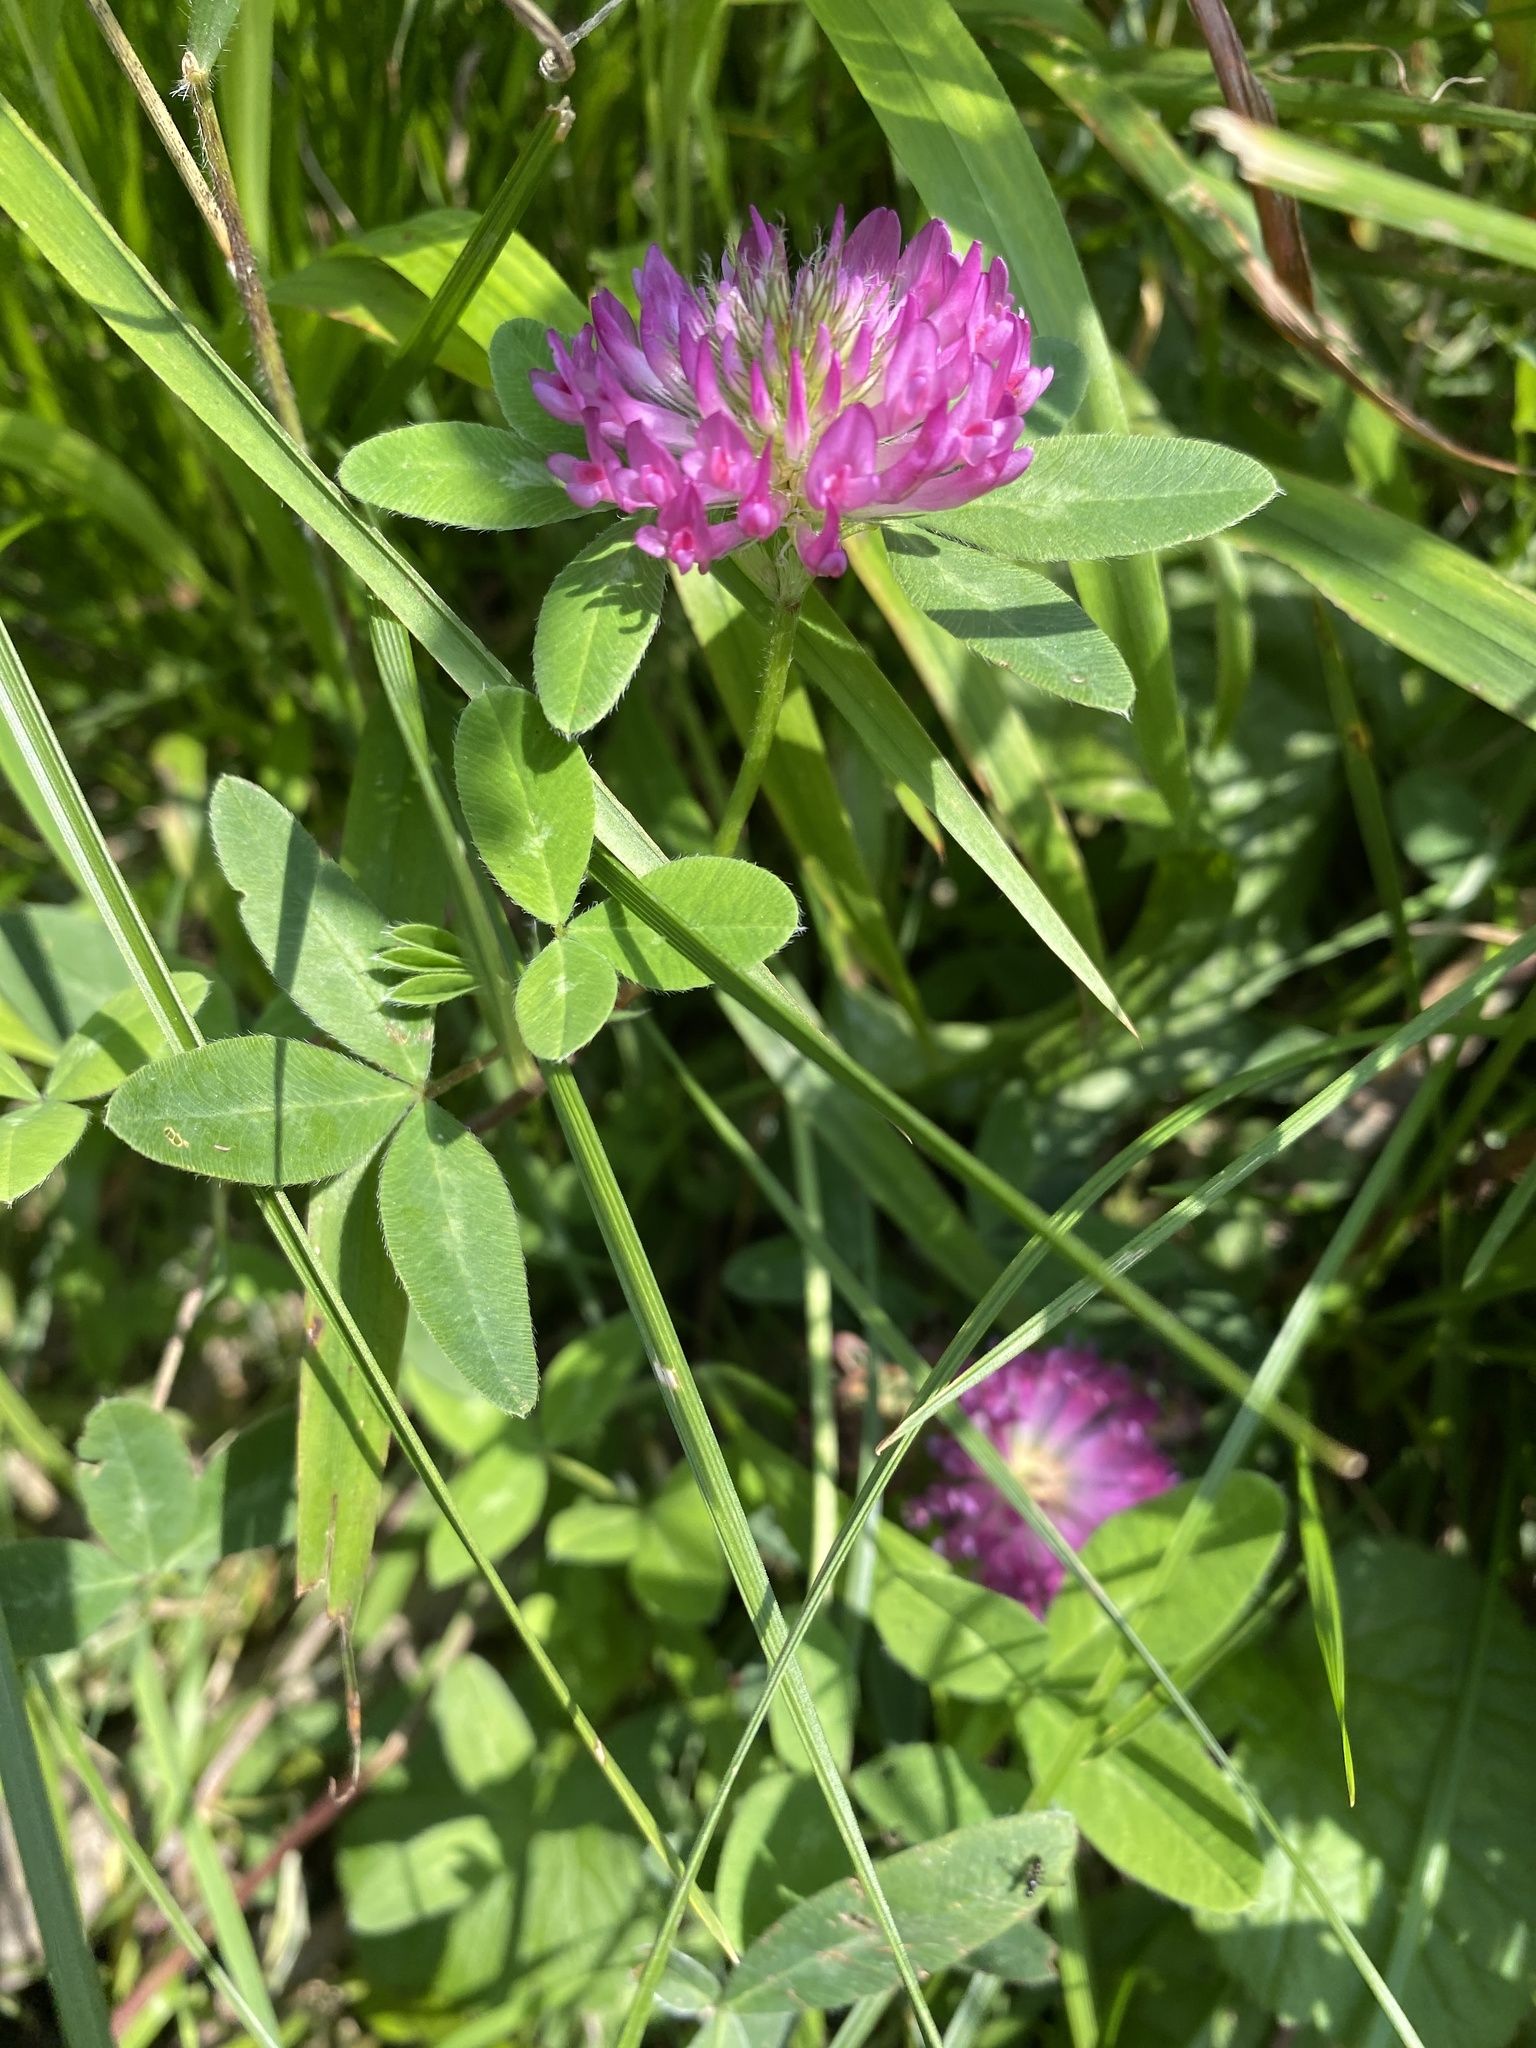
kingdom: Plantae
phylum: Tracheophyta
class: Magnoliopsida
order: Fabales
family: Fabaceae
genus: Trifolium
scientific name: Trifolium medium
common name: Zigzag clover
